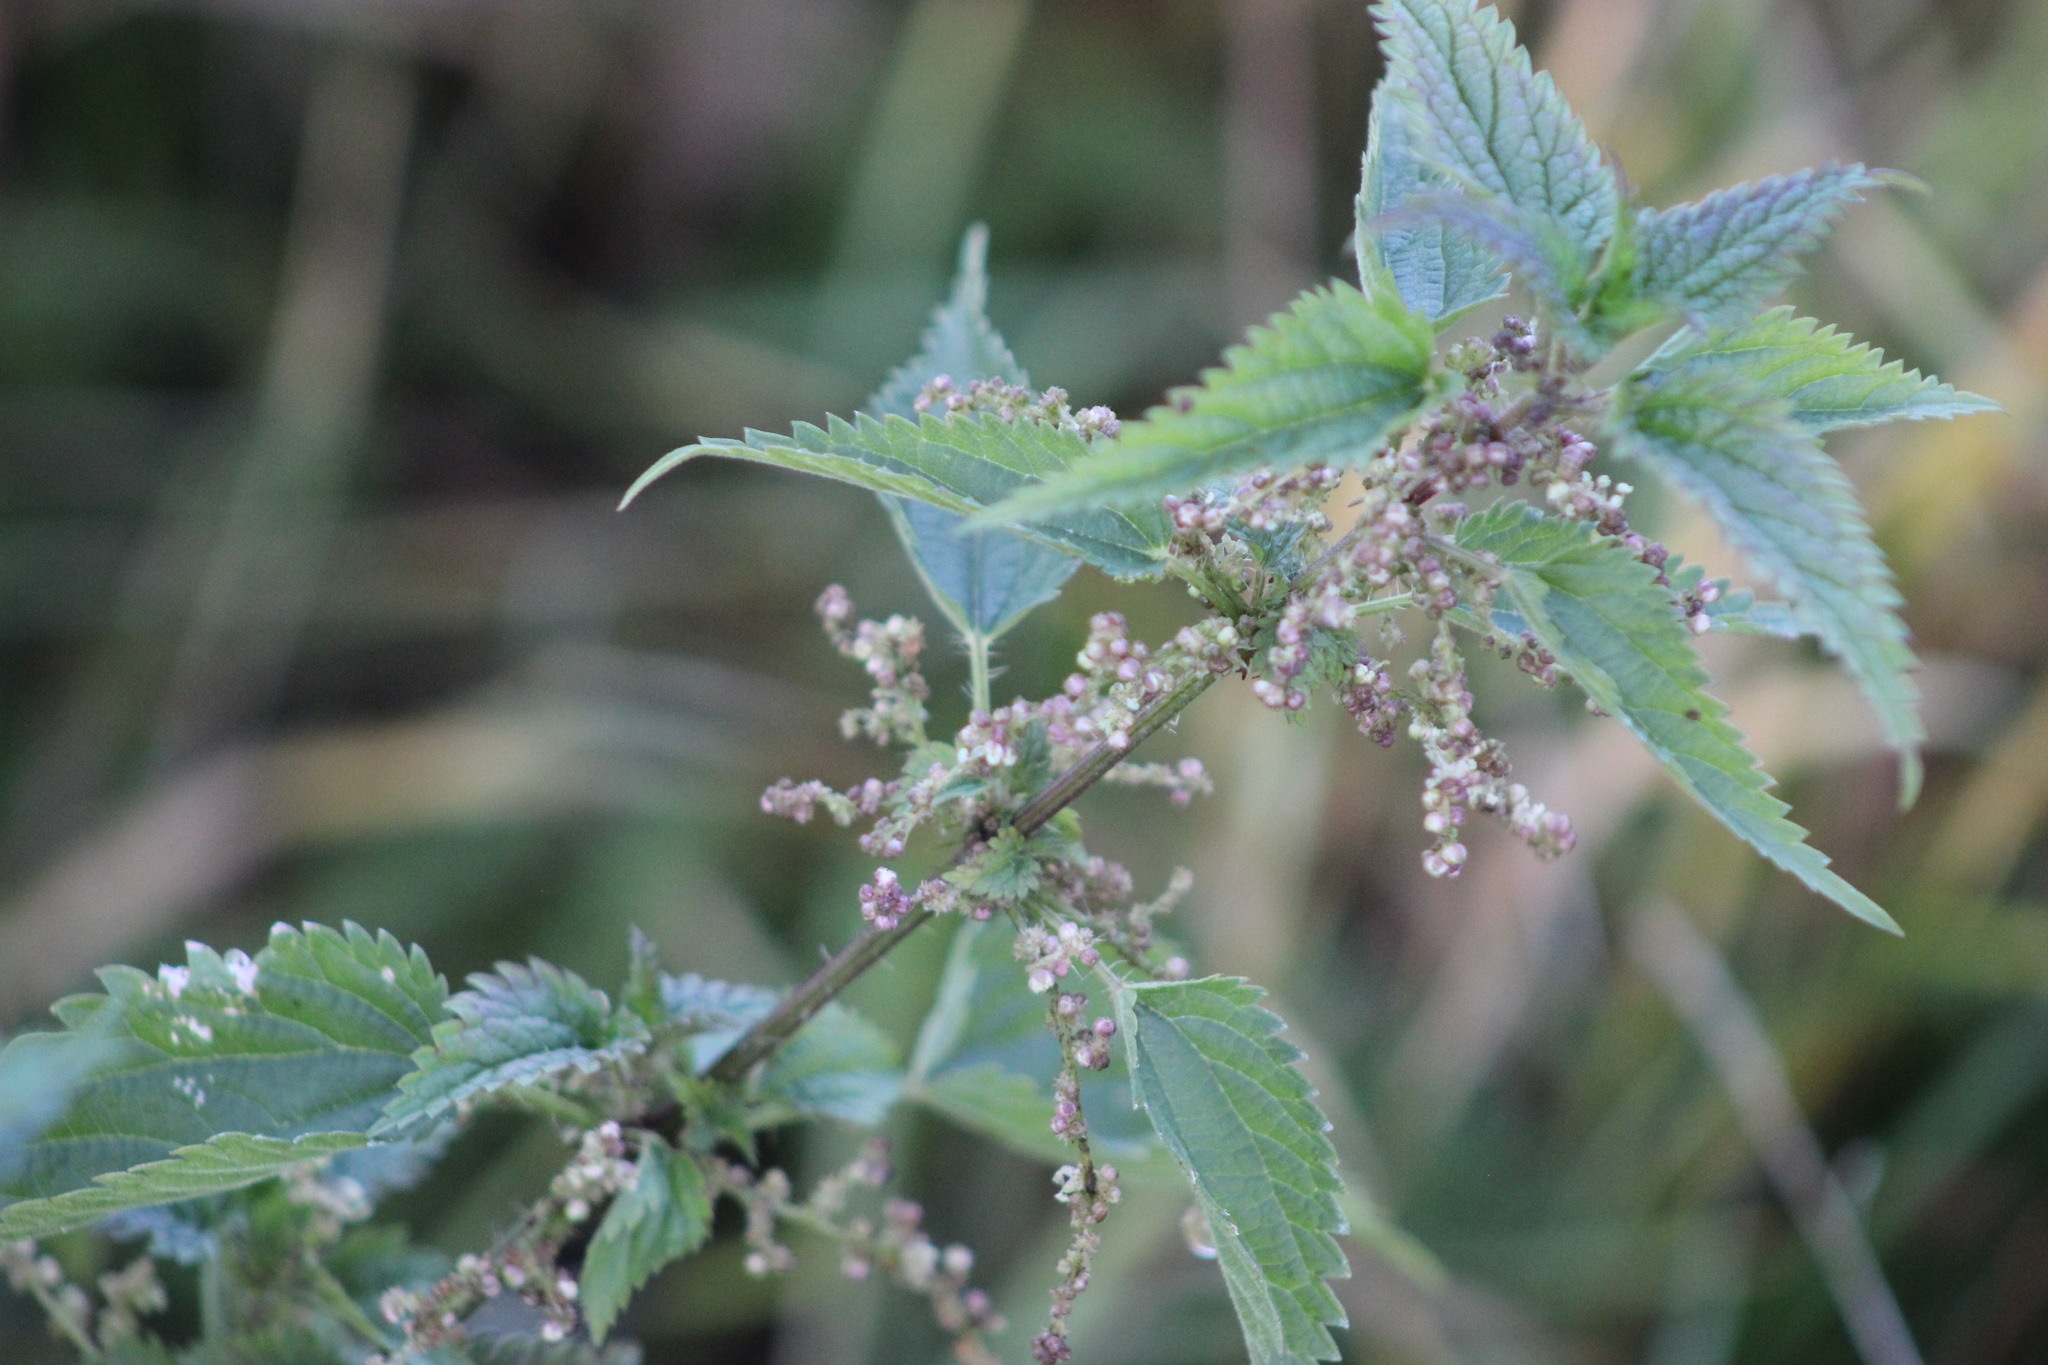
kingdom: Plantae
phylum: Tracheophyta
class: Magnoliopsida
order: Rosales
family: Urticaceae
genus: Urtica
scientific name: Urtica dioica
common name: Common nettle
